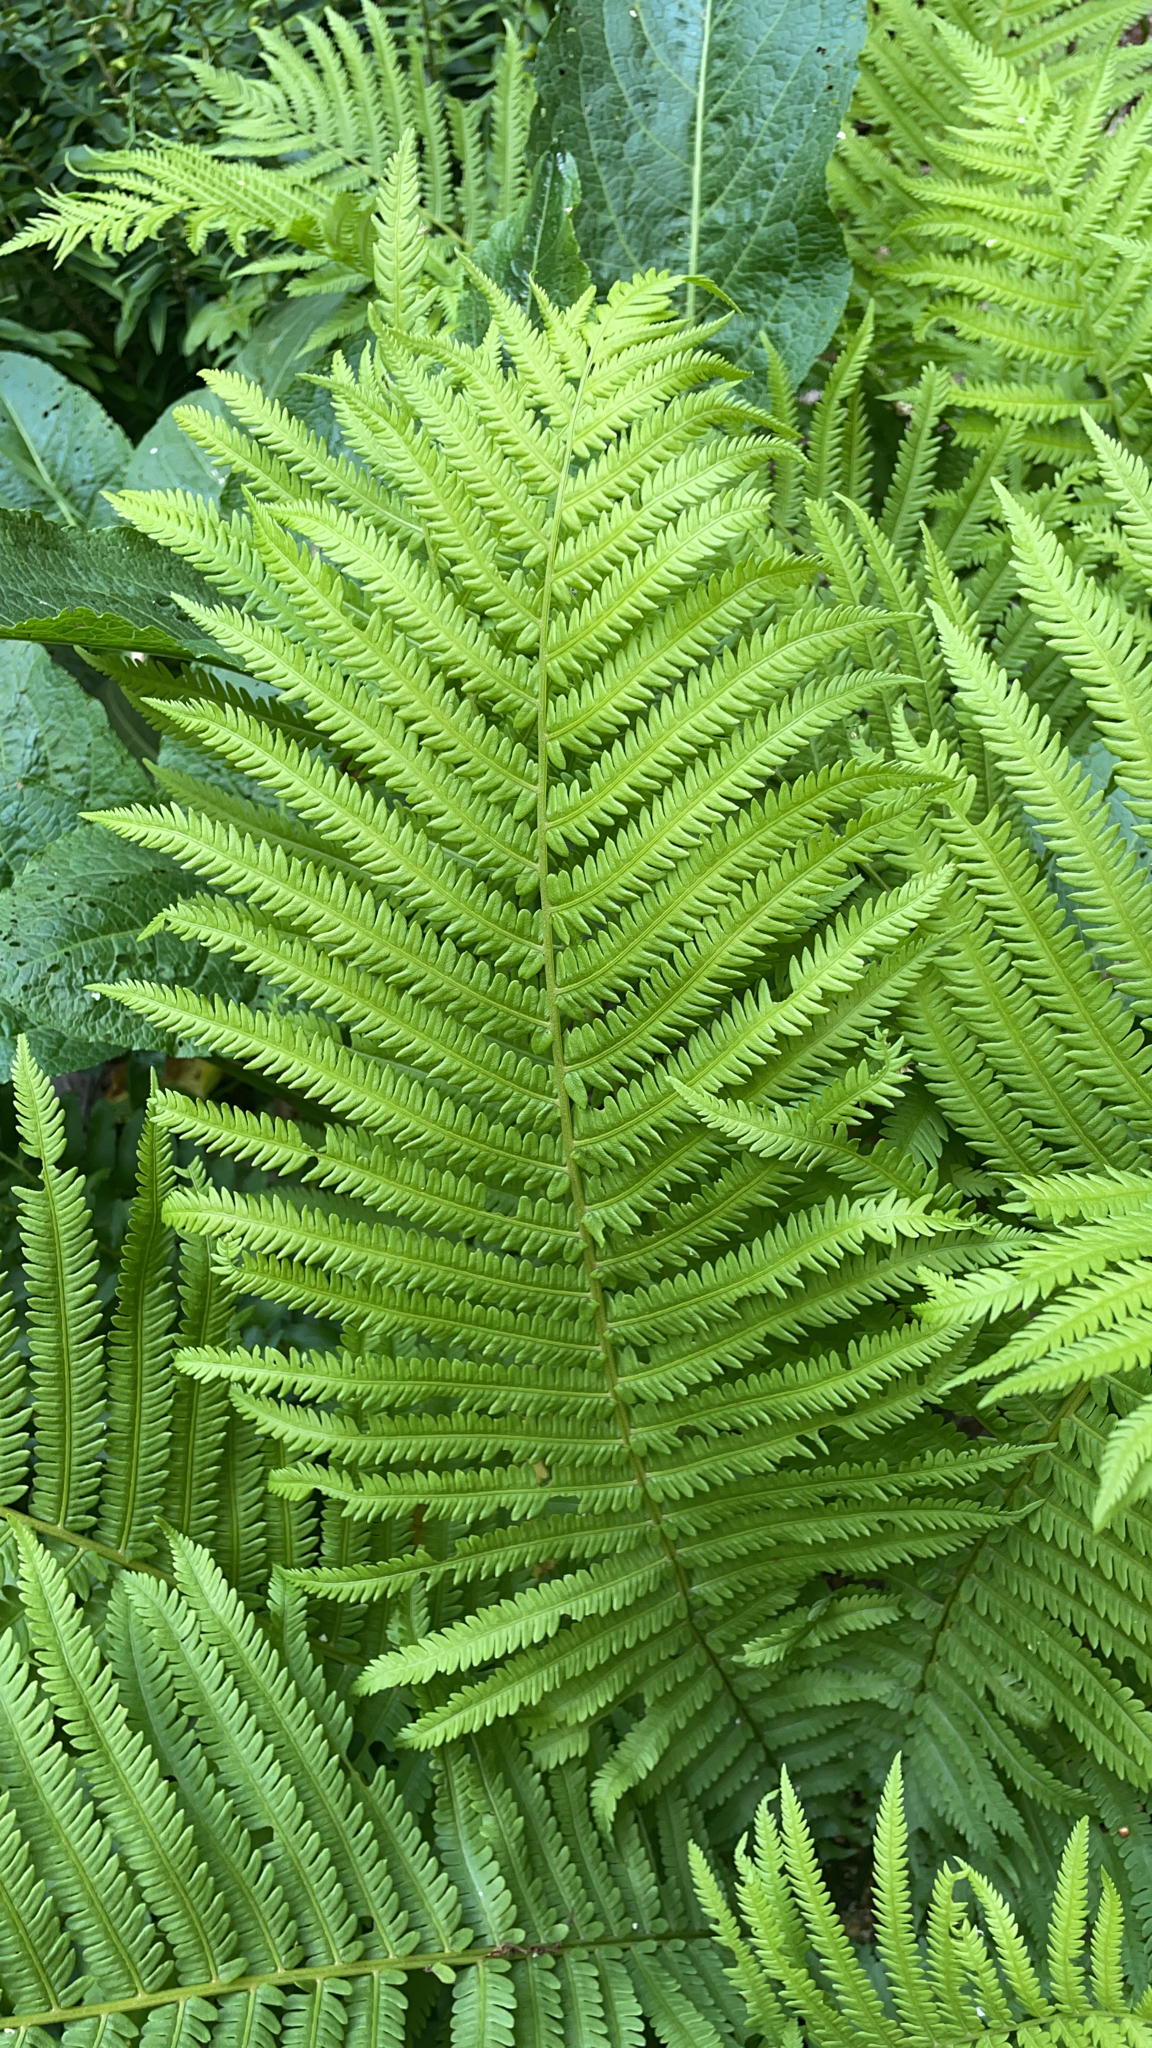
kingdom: Plantae
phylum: Tracheophyta
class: Polypodiopsida
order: Polypodiales
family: Onocleaceae
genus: Matteuccia
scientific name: Matteuccia struthiopteris
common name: Ostrich fern
